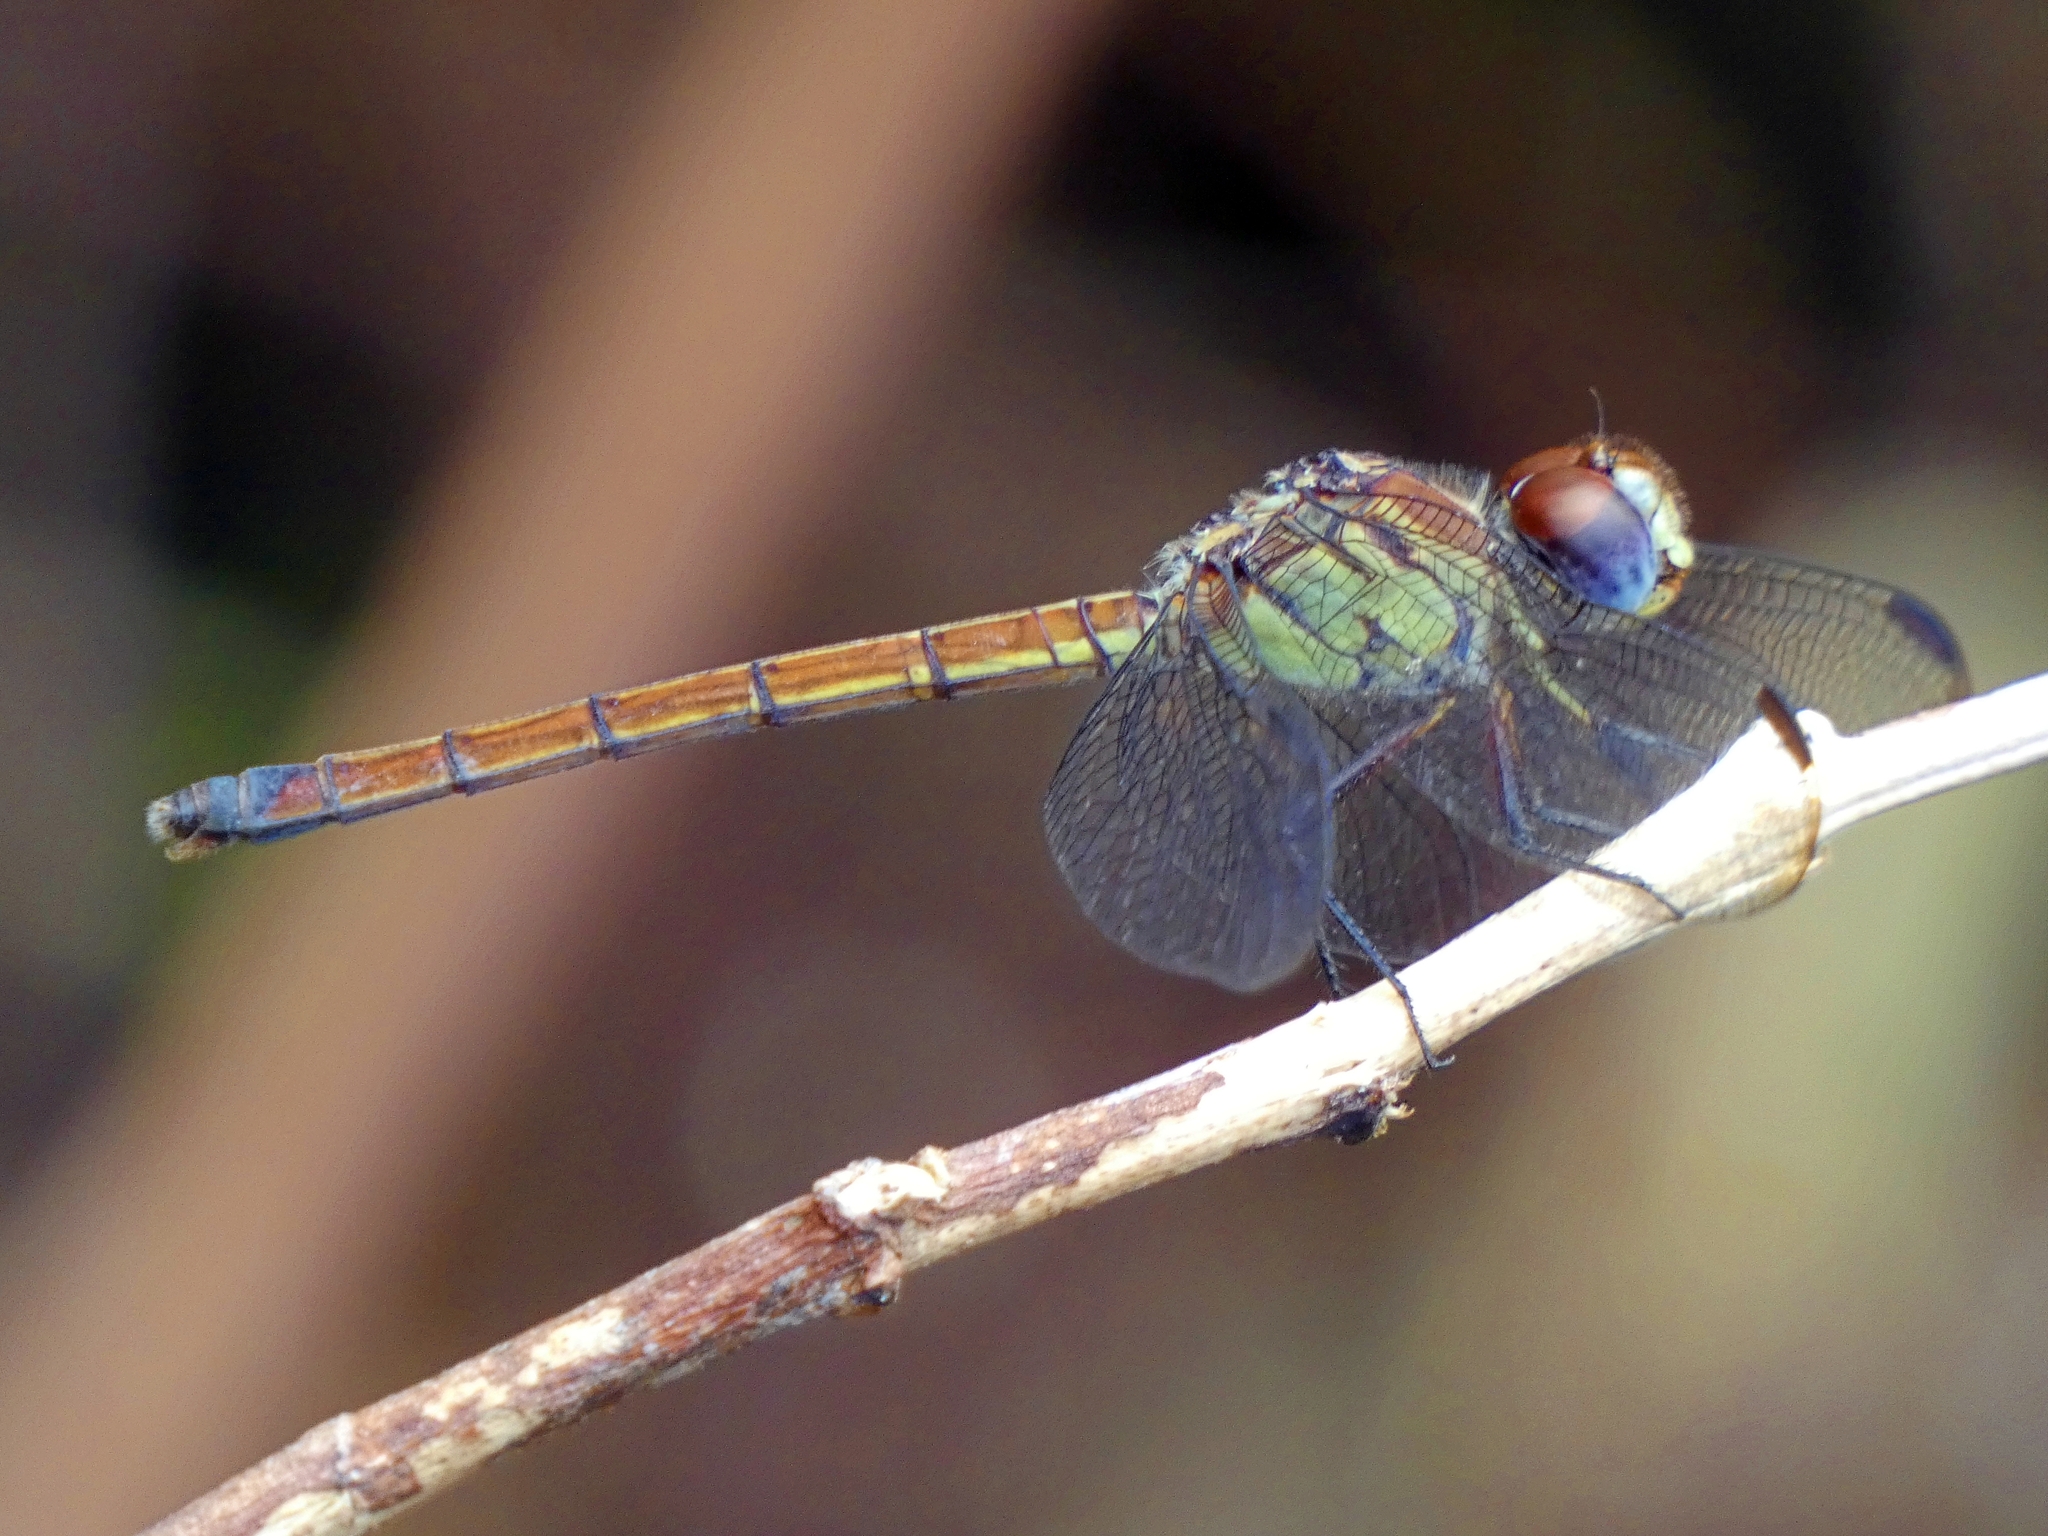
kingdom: Animalia
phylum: Arthropoda
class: Insecta
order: Odonata
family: Libellulidae
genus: Lathrecista
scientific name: Lathrecista asiatica
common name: Scarlet grenadier
